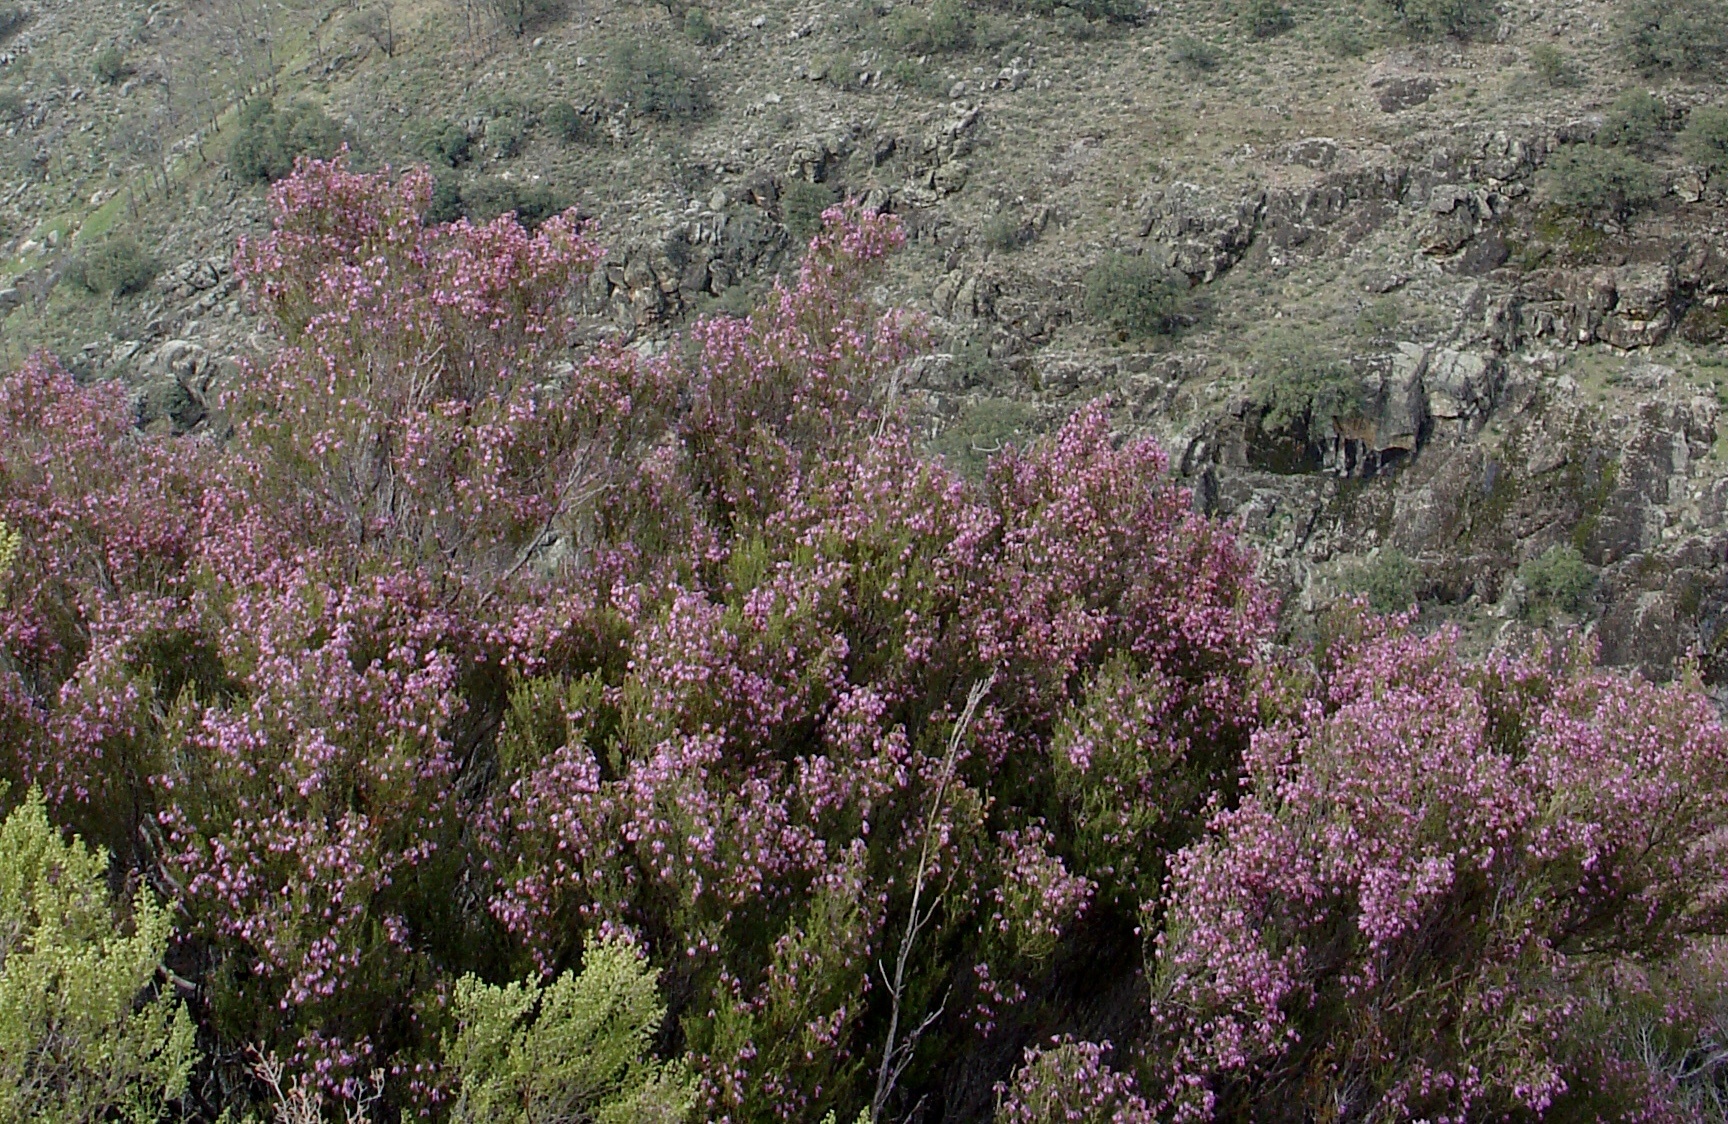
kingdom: Plantae
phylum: Tracheophyta
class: Magnoliopsida
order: Ericales
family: Ericaceae
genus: Erica
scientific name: Erica australis
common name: Spanish heath
